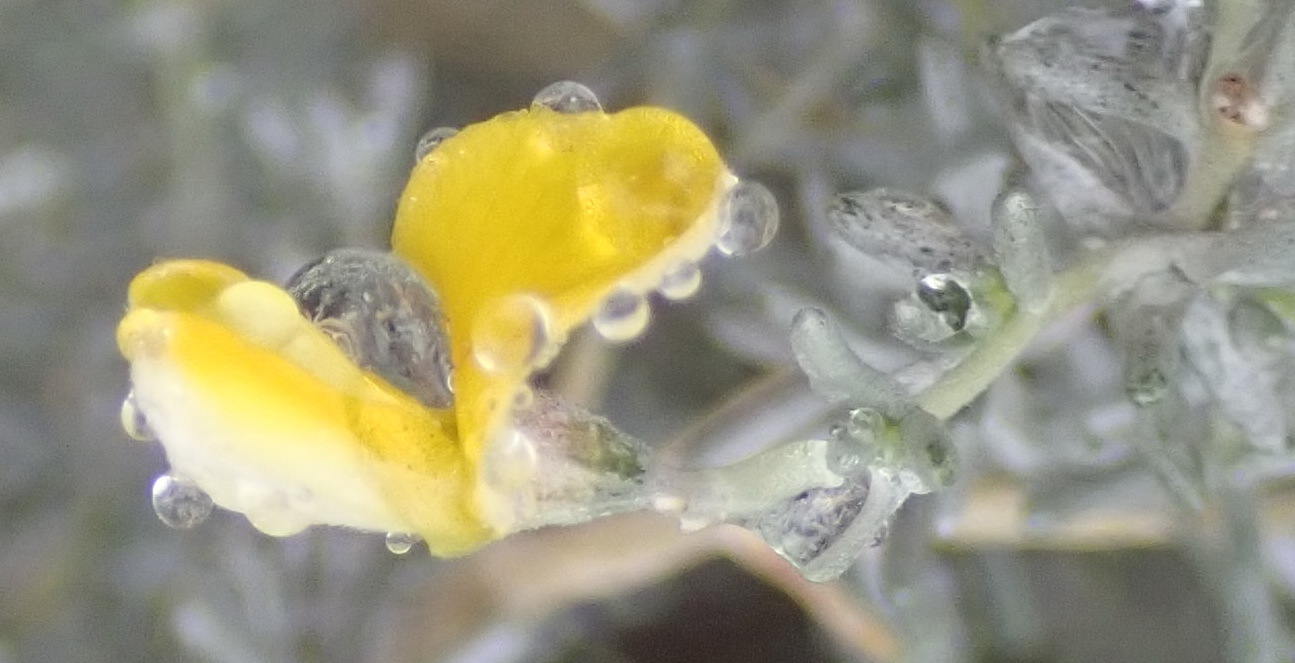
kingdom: Plantae
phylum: Tracheophyta
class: Magnoliopsida
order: Fabales
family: Fabaceae
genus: Aspalathus
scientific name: Aspalathus pedunculata
